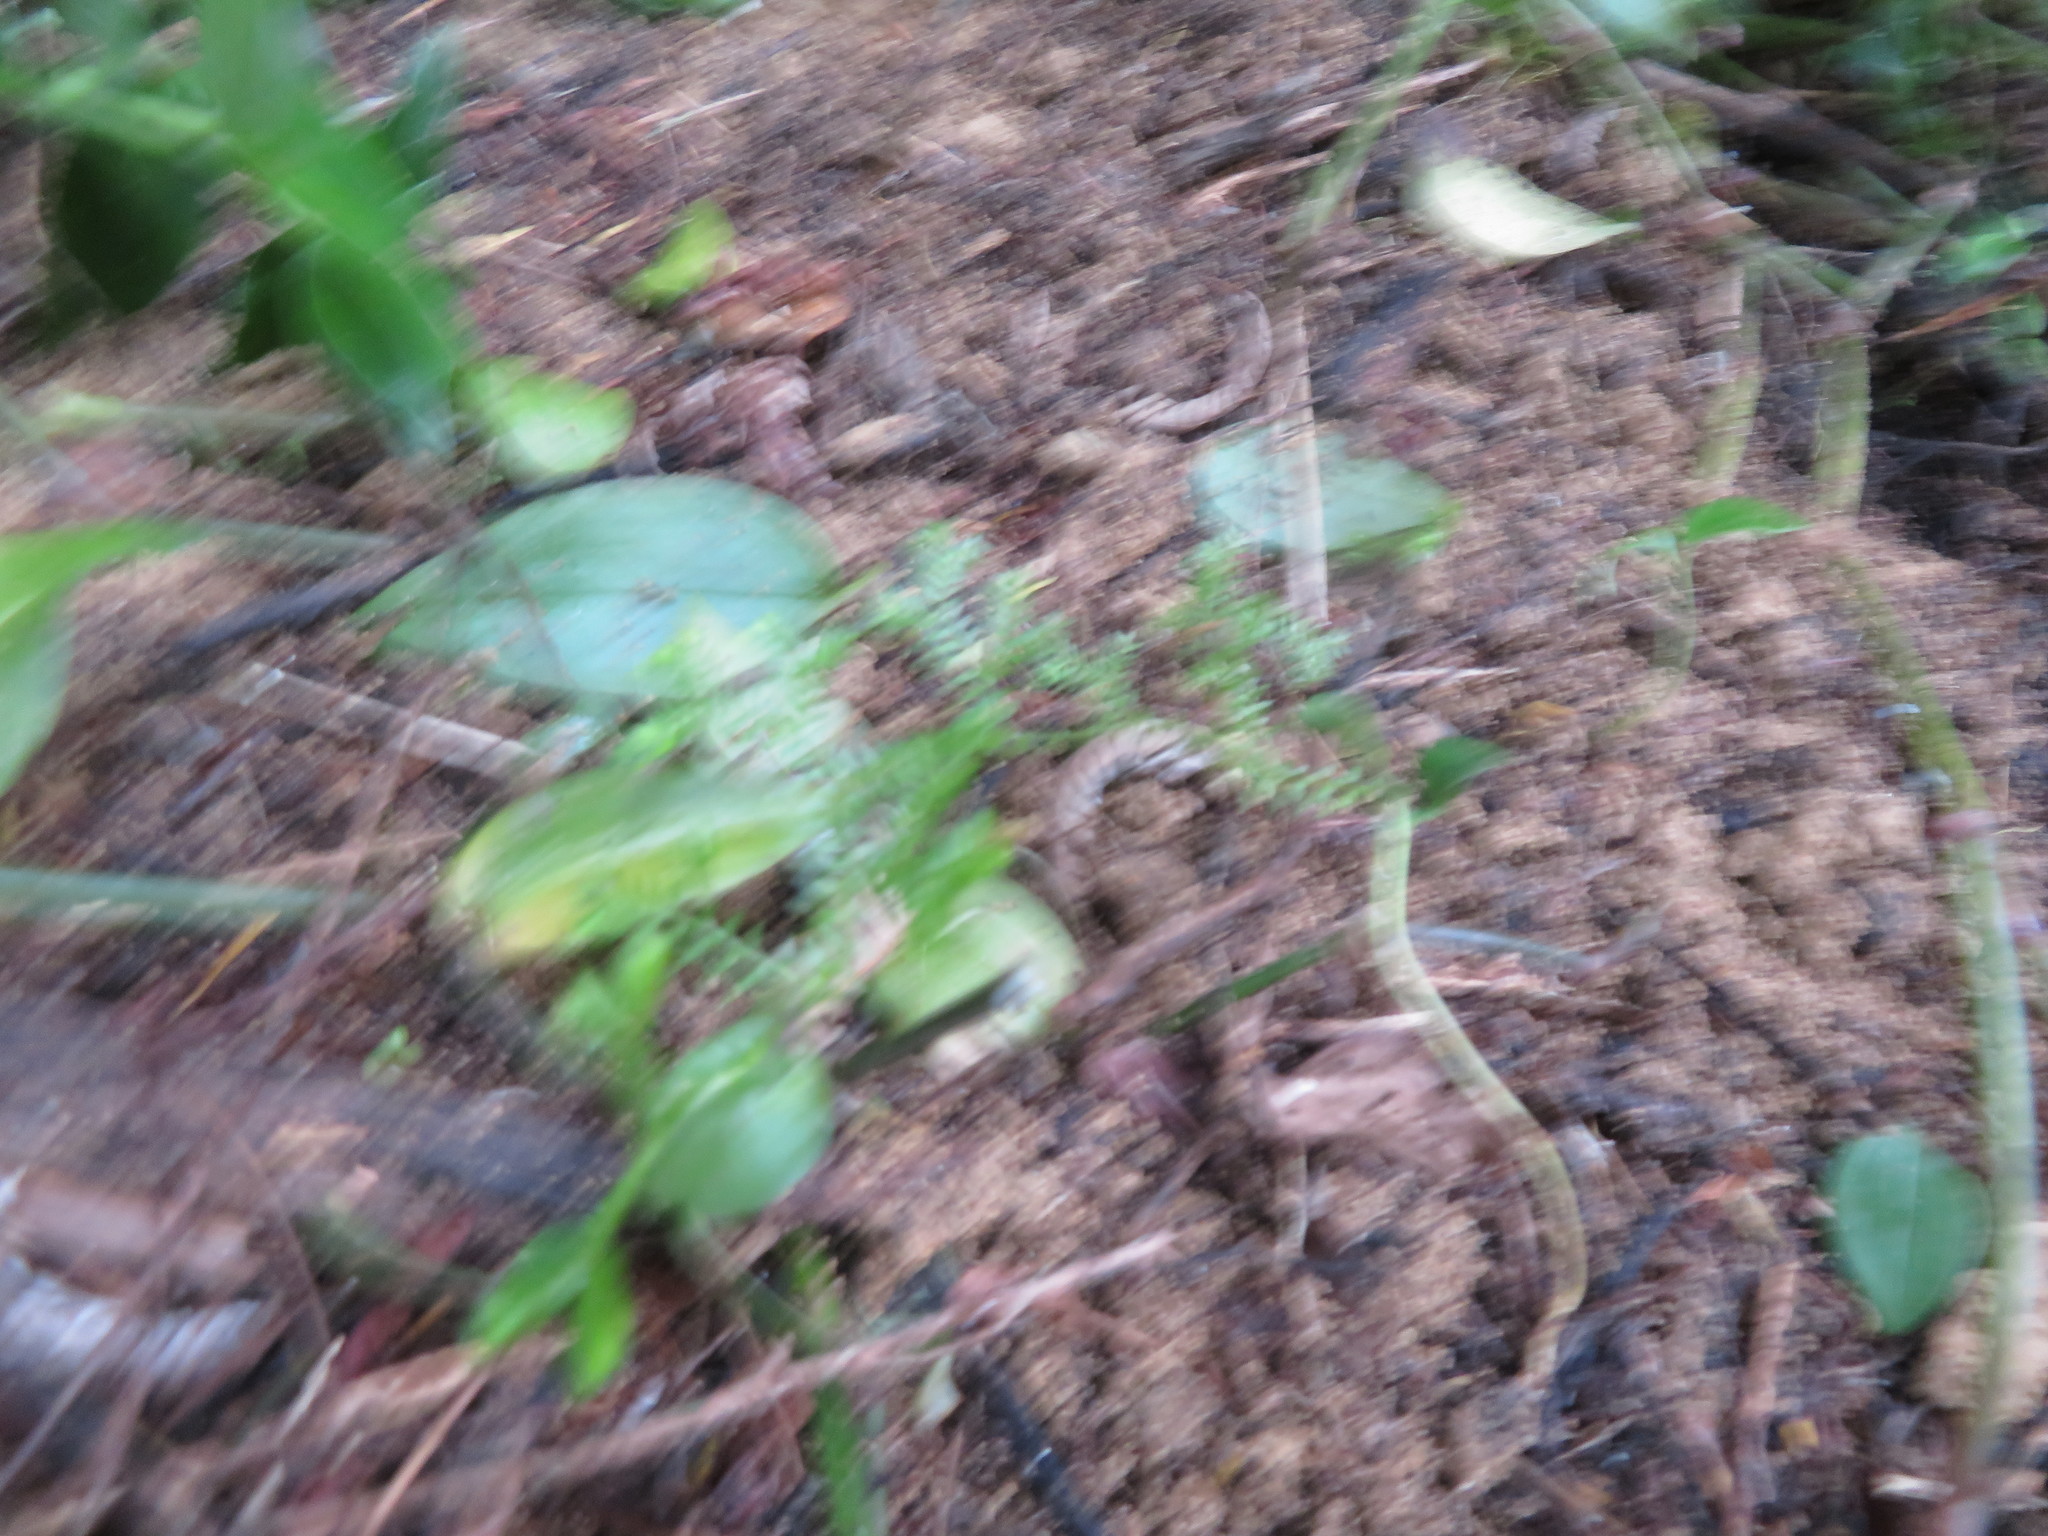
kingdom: Plantae
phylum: Tracheophyta
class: Lycopodiopsida
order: Selaginellales
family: Selaginellaceae
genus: Selaginella
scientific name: Selaginella kraussiana
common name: Krauss' spikemoss
